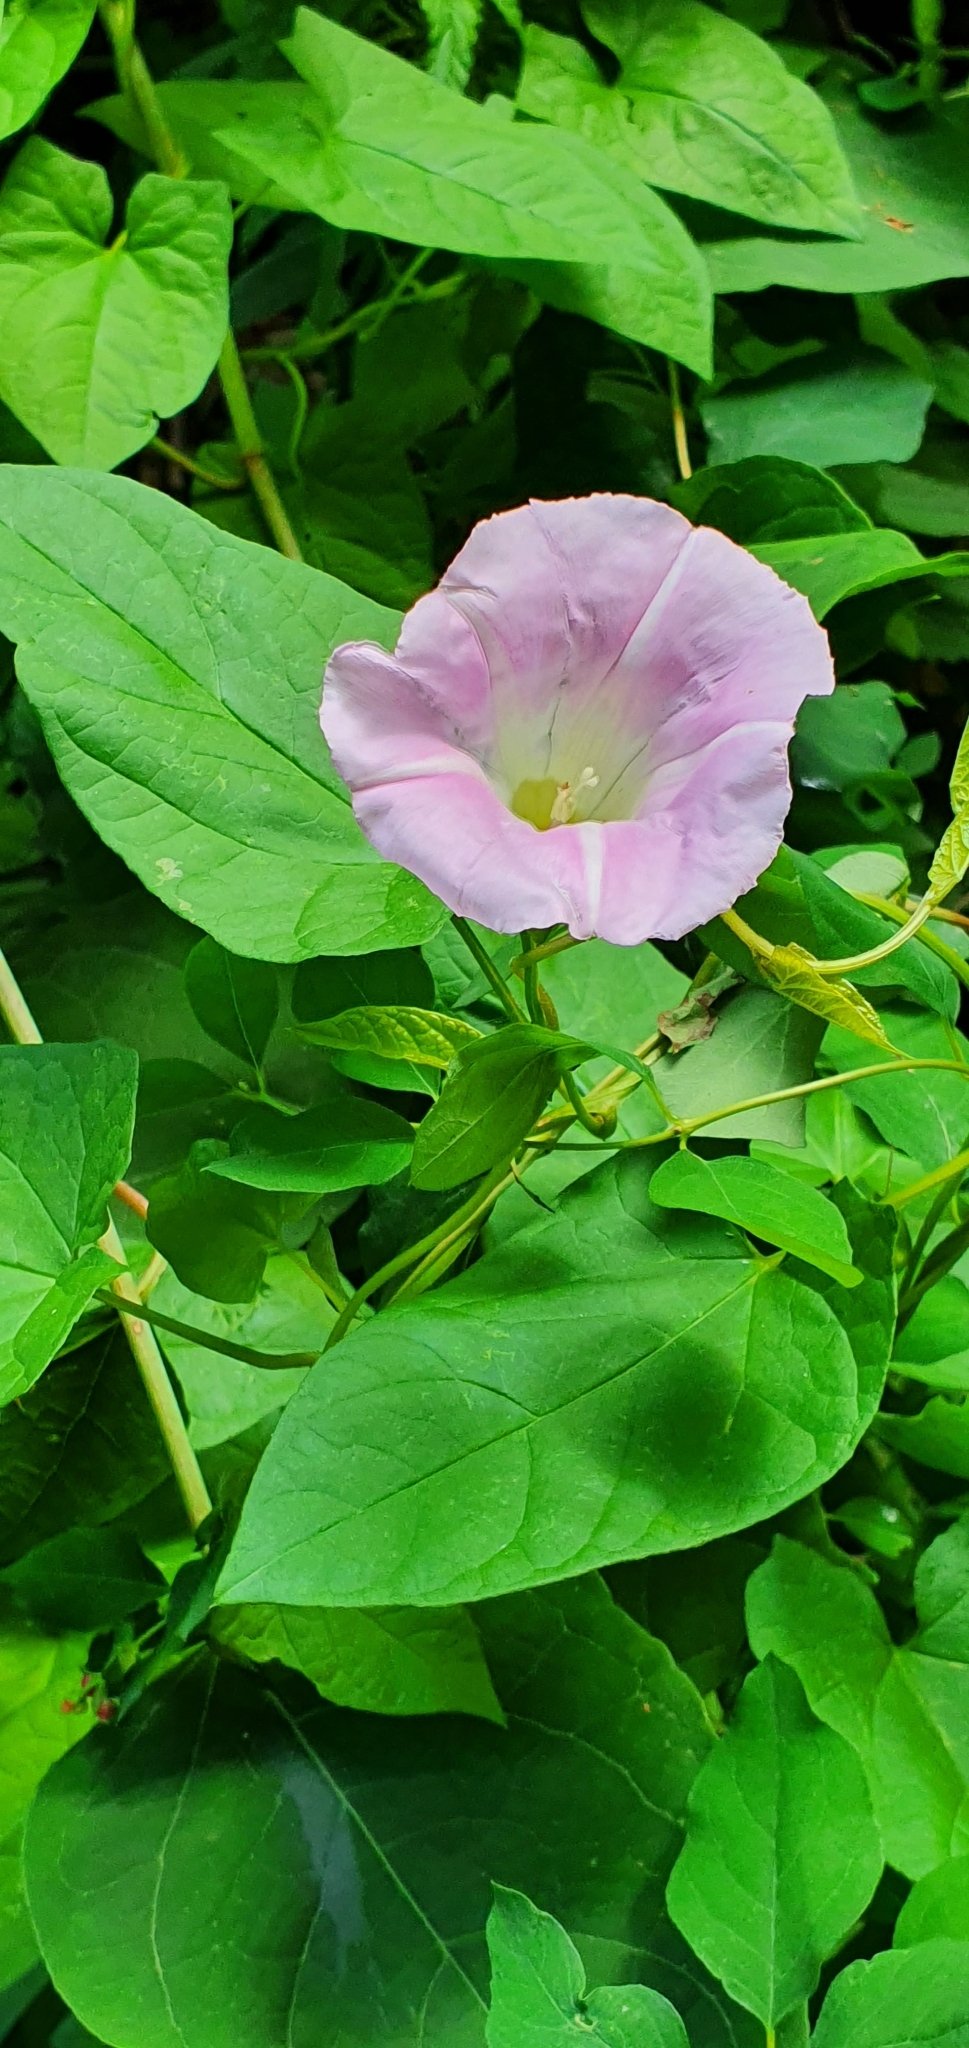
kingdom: Plantae
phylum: Tracheophyta
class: Magnoliopsida
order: Solanales
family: Convolvulaceae
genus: Calystegia
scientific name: Calystegia pulchra
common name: Hairy bindweed
